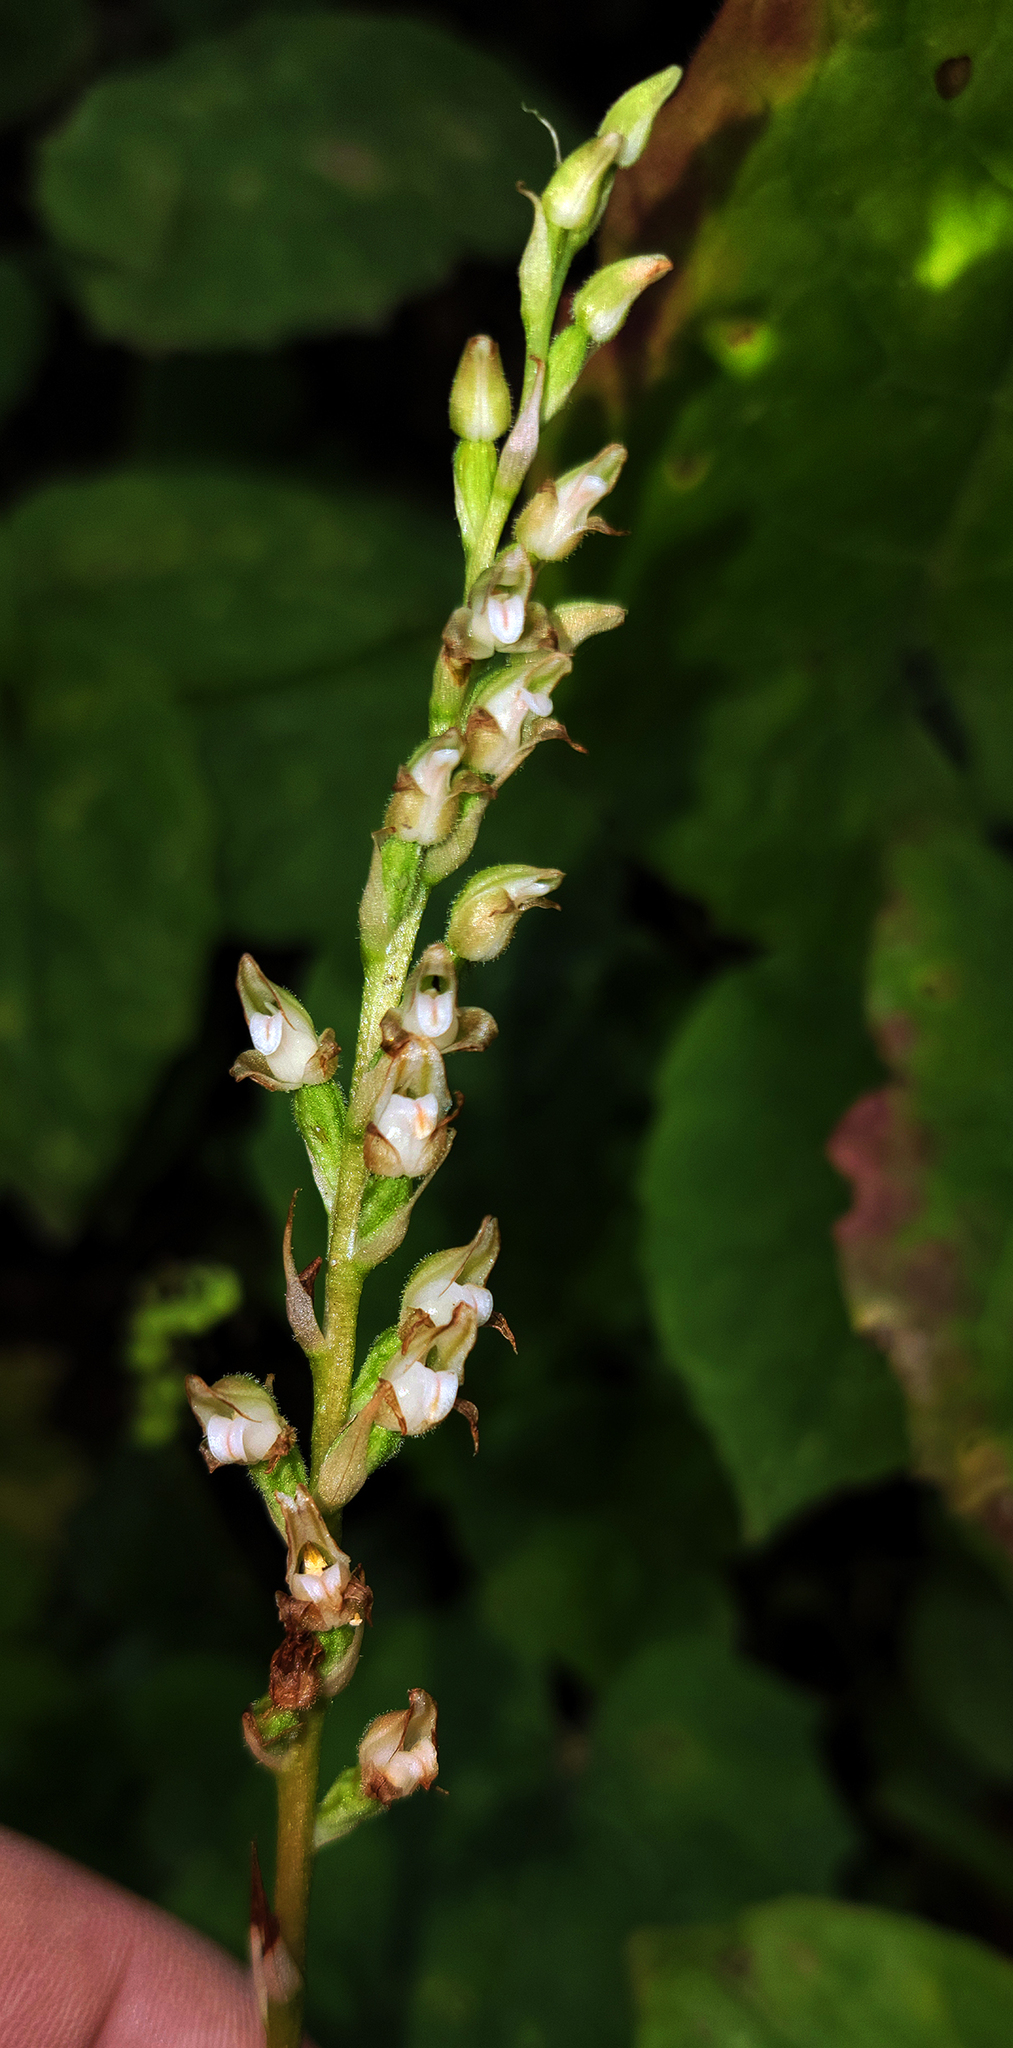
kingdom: Plantae
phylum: Tracheophyta
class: Liliopsida
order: Asparagales
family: Orchidaceae
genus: Goodyera
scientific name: Goodyera oblongifolia
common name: Giant rattlesnake-plantain
